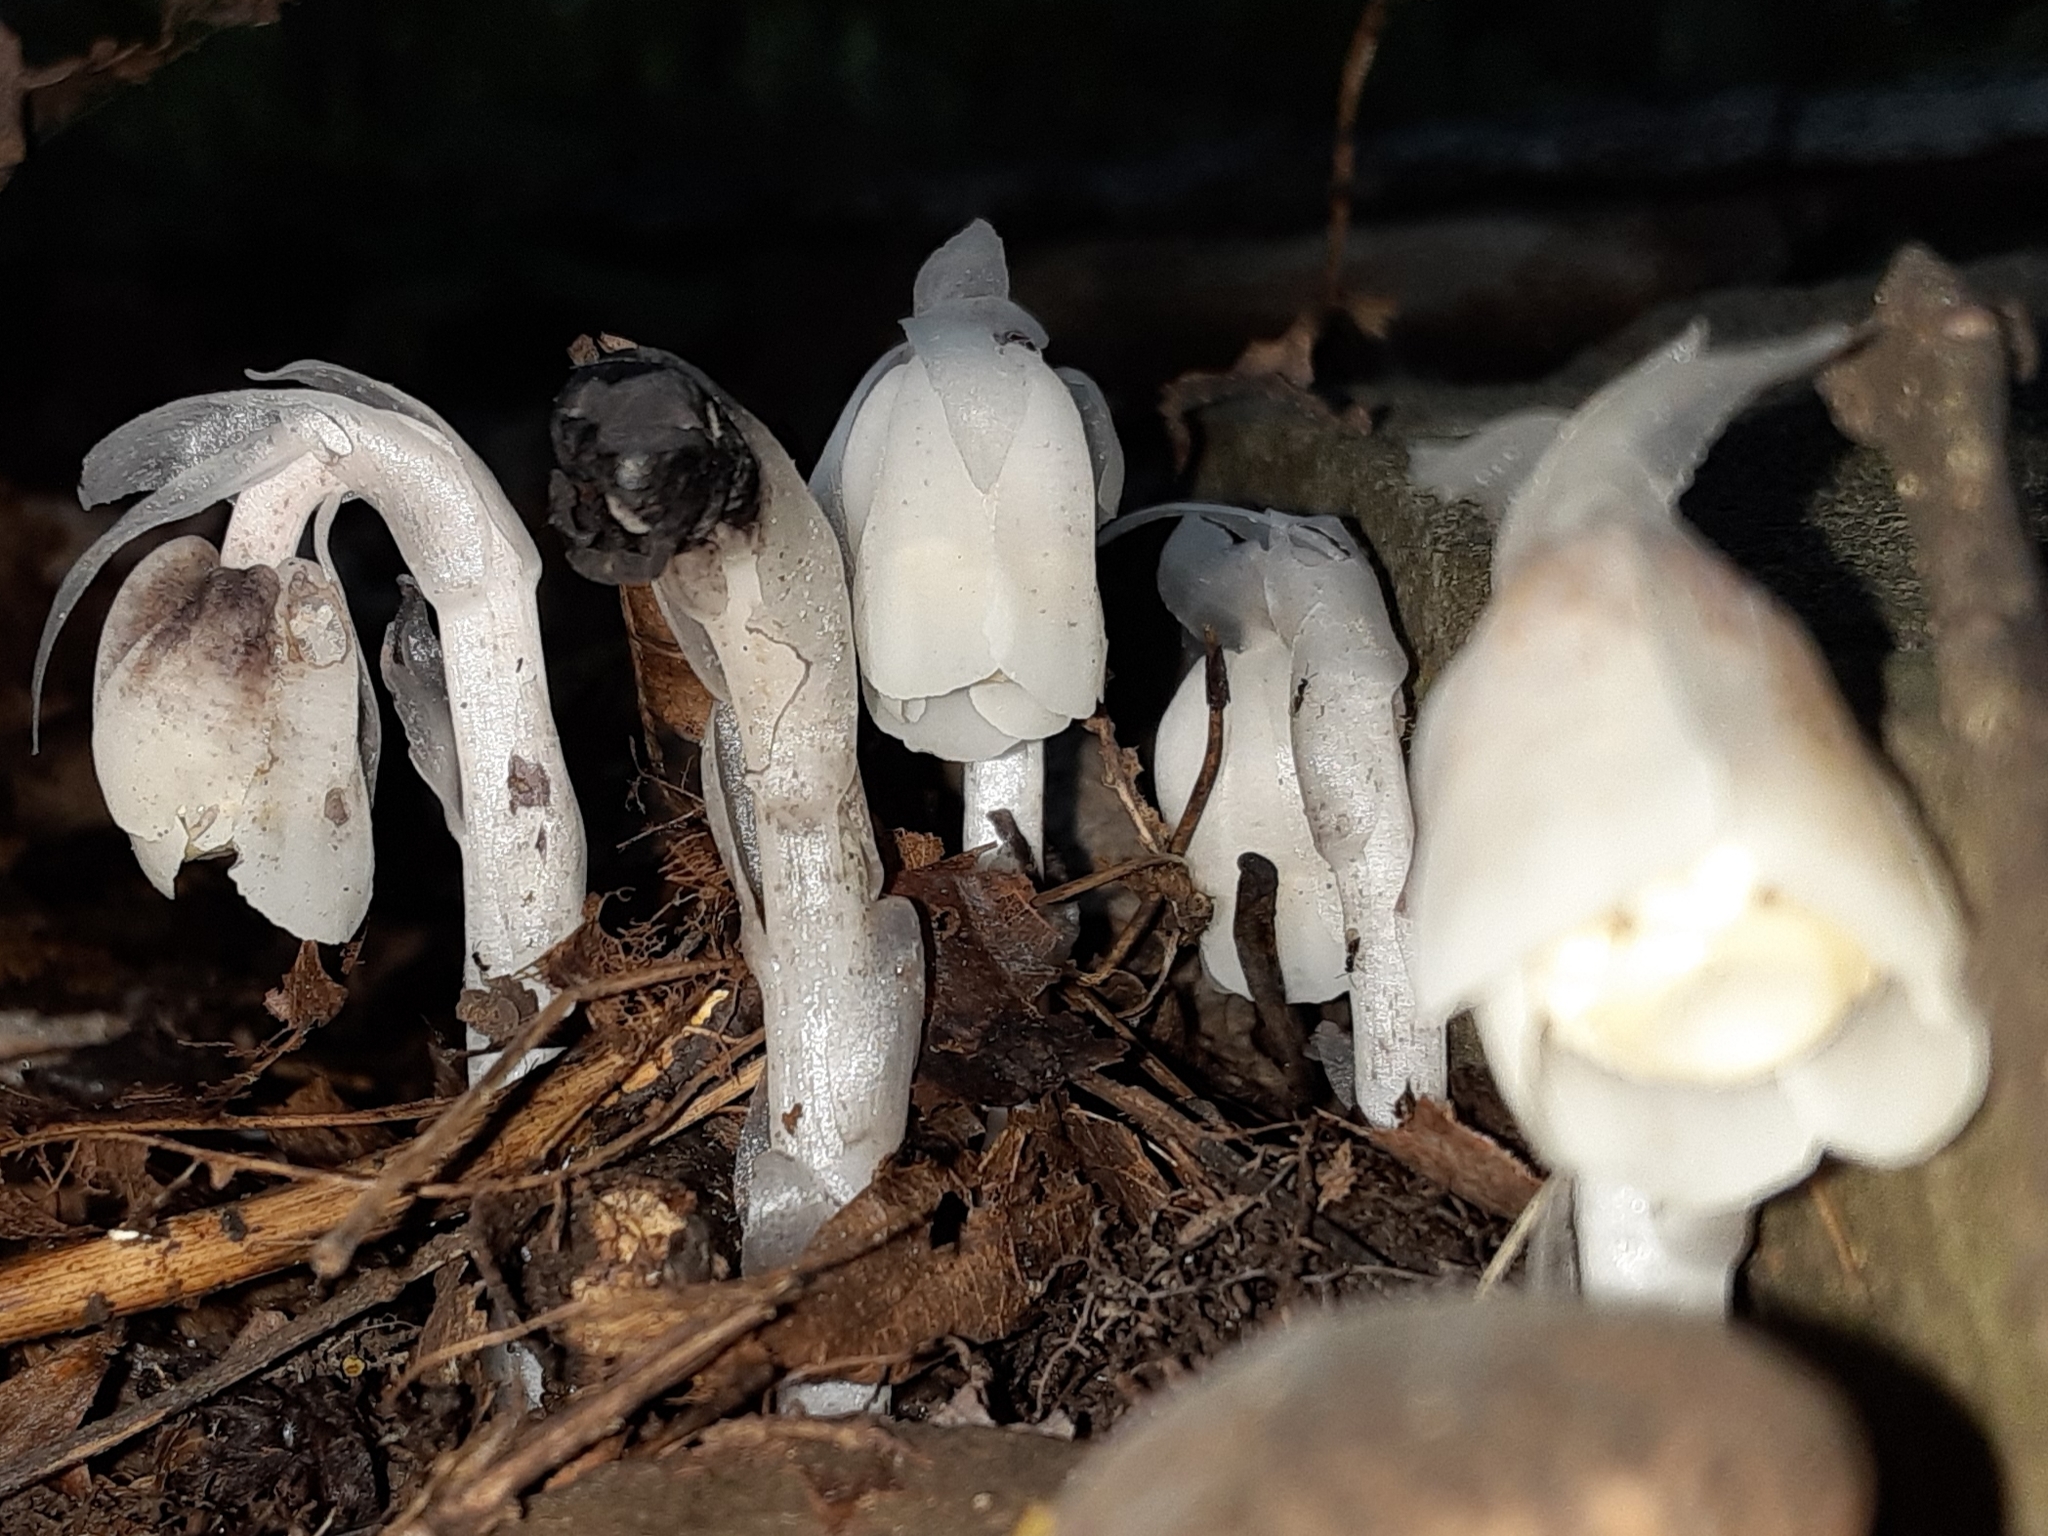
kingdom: Plantae
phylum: Tracheophyta
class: Magnoliopsida
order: Ericales
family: Ericaceae
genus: Monotropa
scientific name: Monotropa uniflora
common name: Convulsion root
